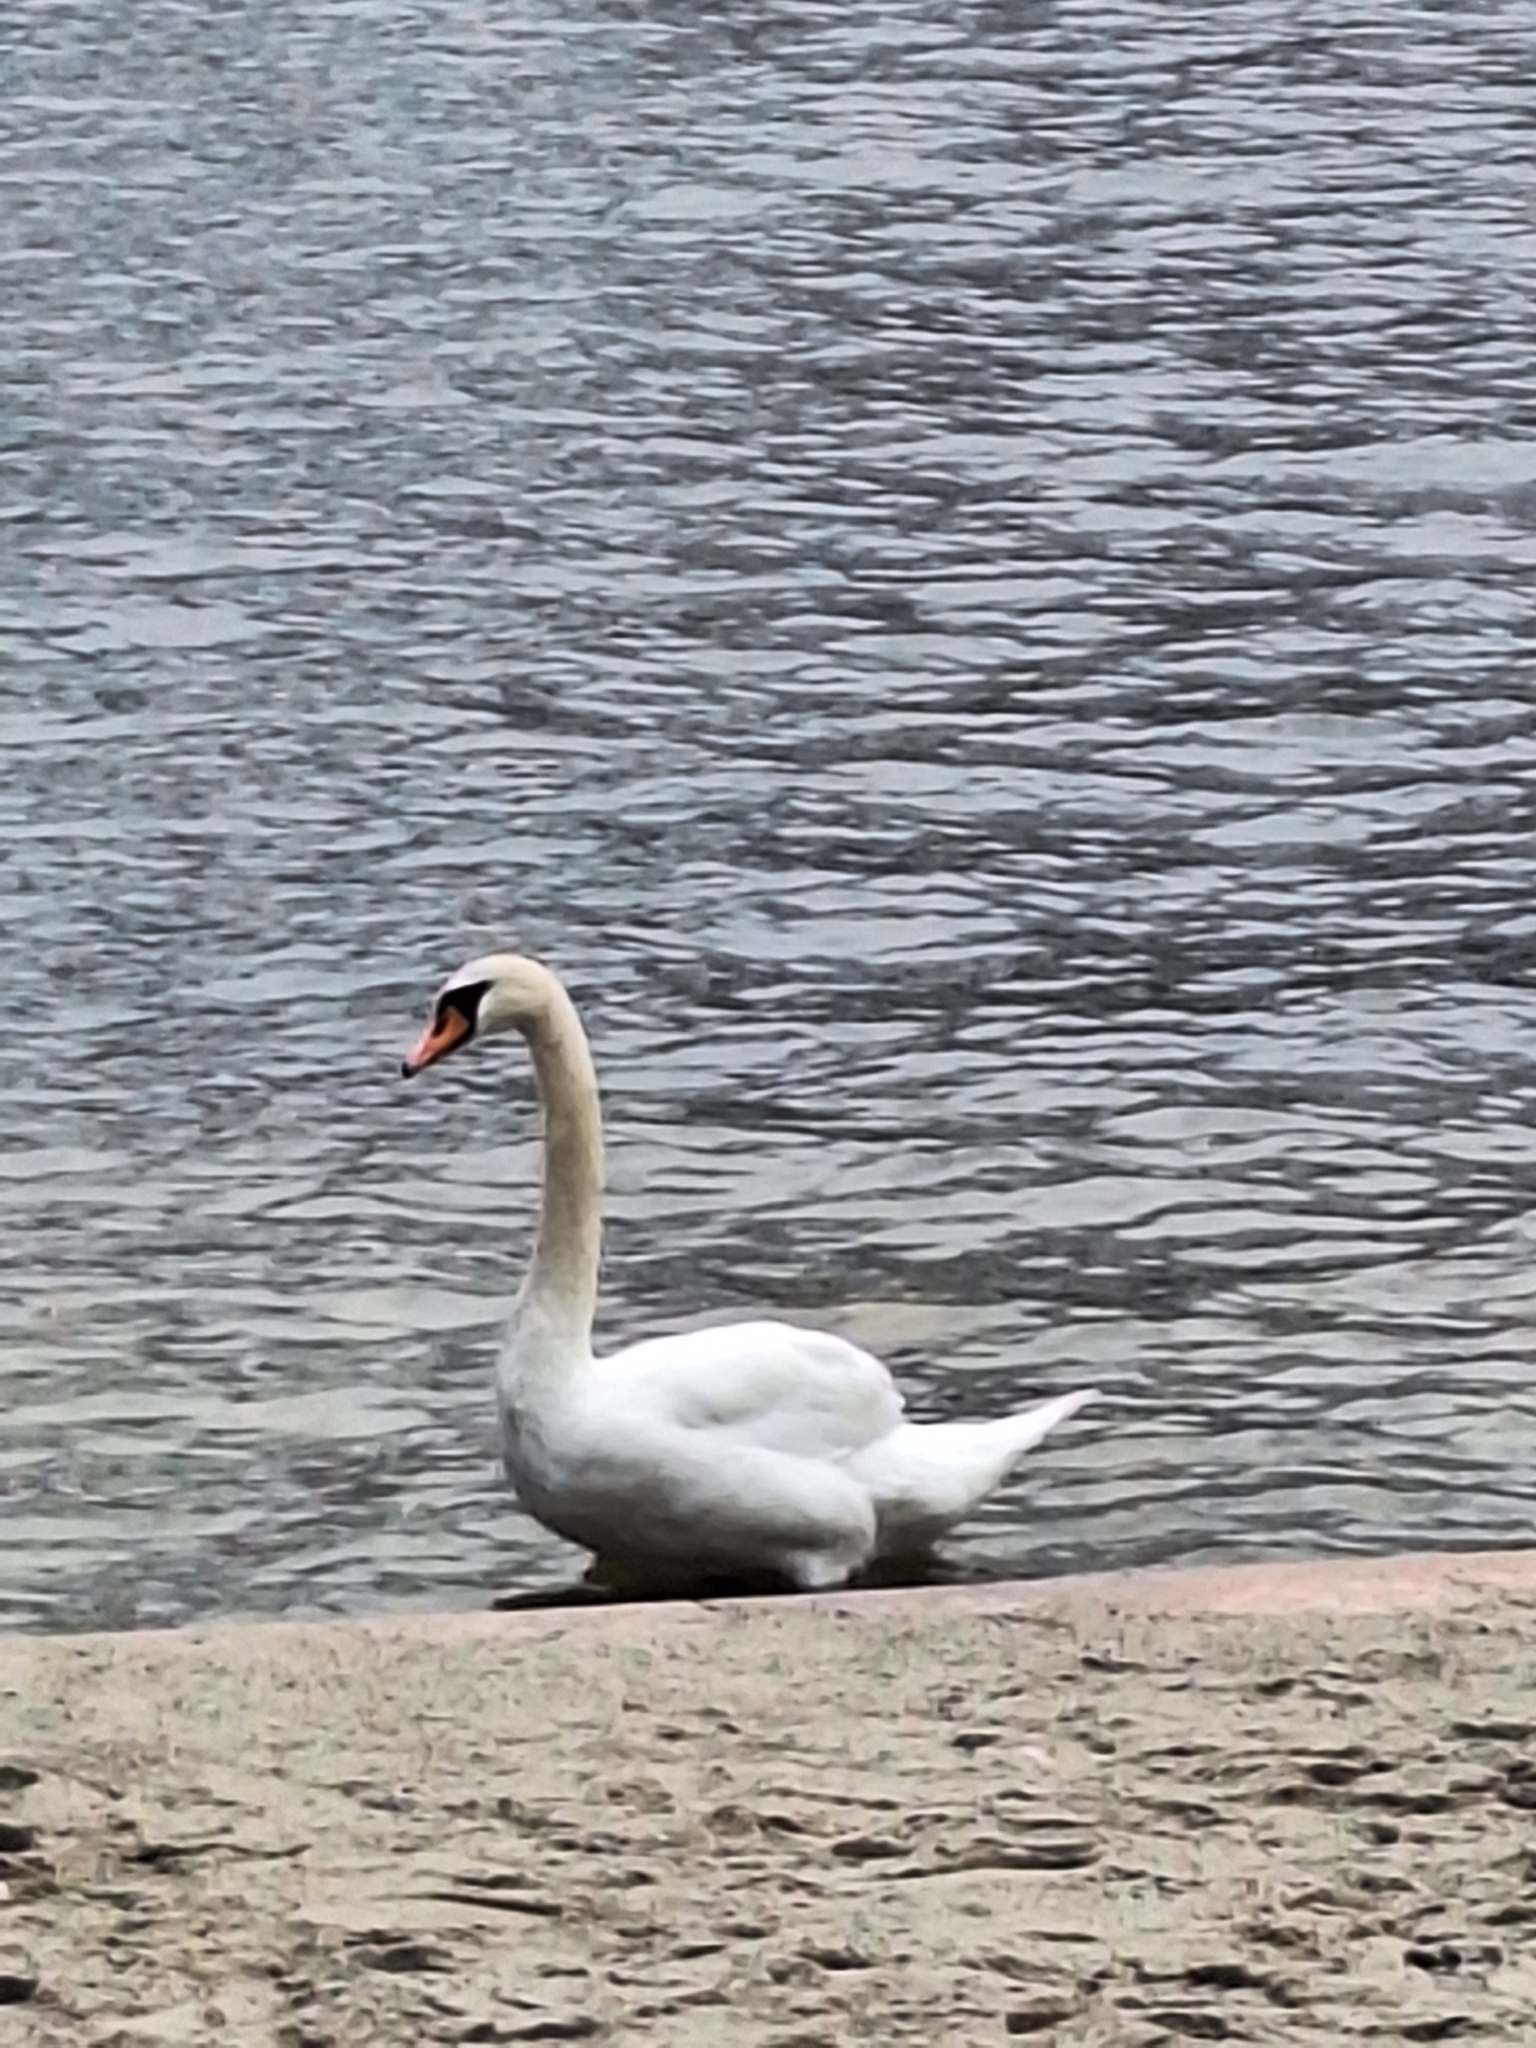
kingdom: Animalia
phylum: Chordata
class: Aves
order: Anseriformes
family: Anatidae
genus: Cygnus
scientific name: Cygnus olor
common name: Mute swan
